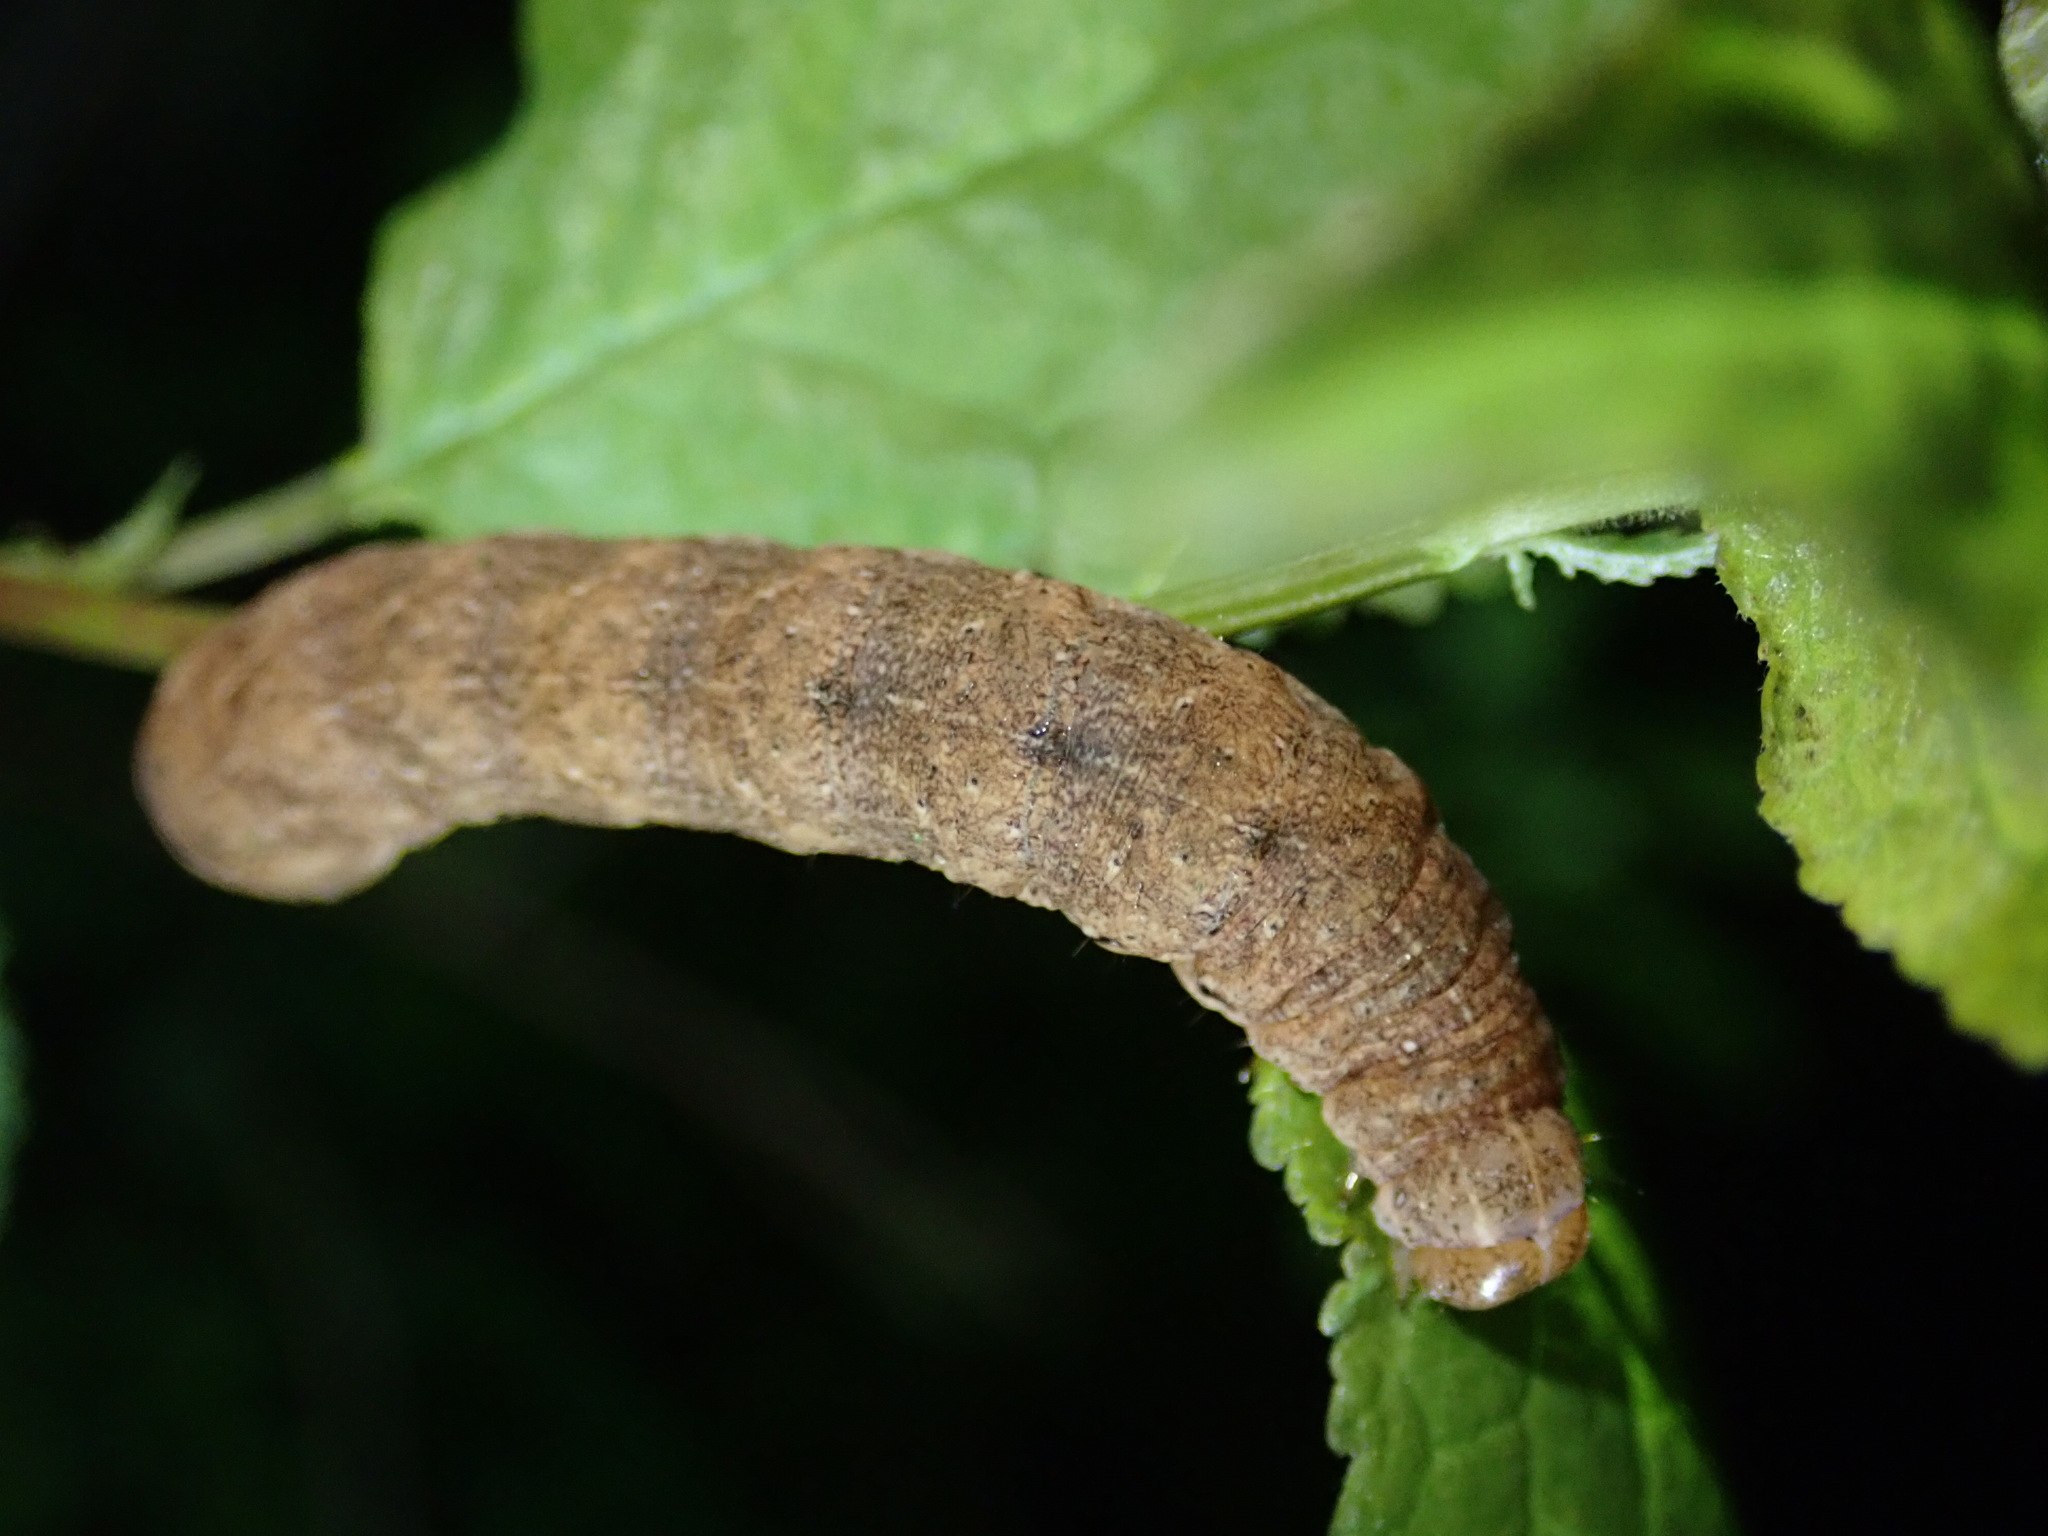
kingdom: Animalia
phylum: Arthropoda
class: Insecta
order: Lepidoptera
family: Noctuidae
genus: Noctua
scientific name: Noctua fimbriata
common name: Broad-bordered yellow underwing
